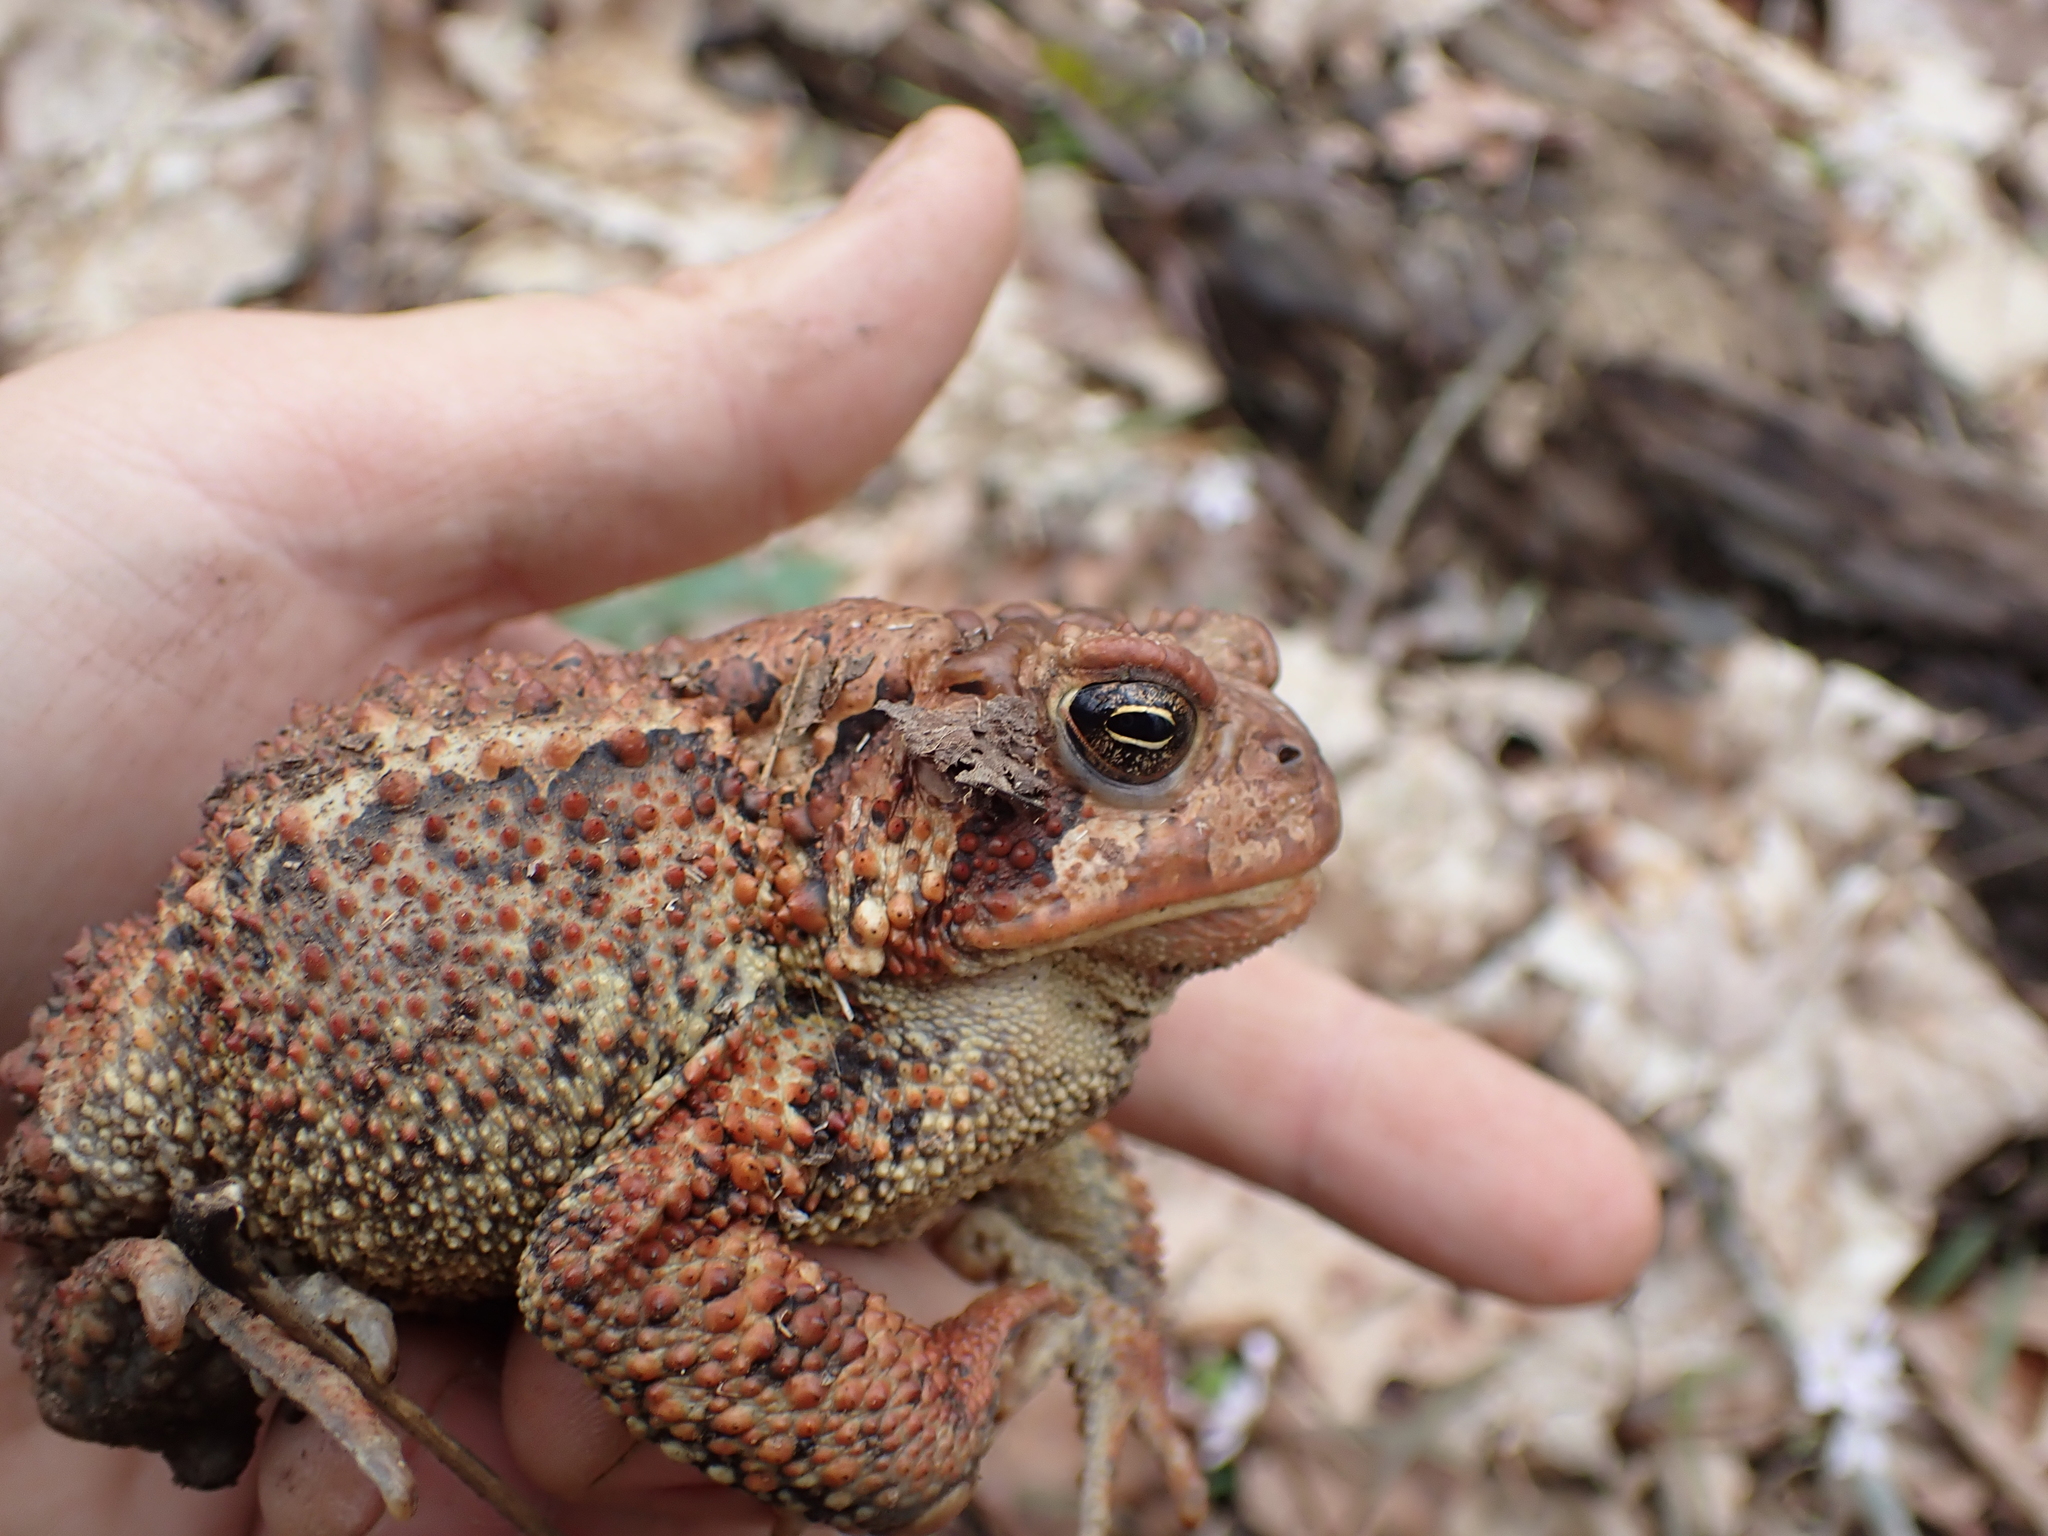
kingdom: Animalia
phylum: Chordata
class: Amphibia
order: Anura
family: Bufonidae
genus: Anaxyrus
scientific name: Anaxyrus americanus
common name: American toad
